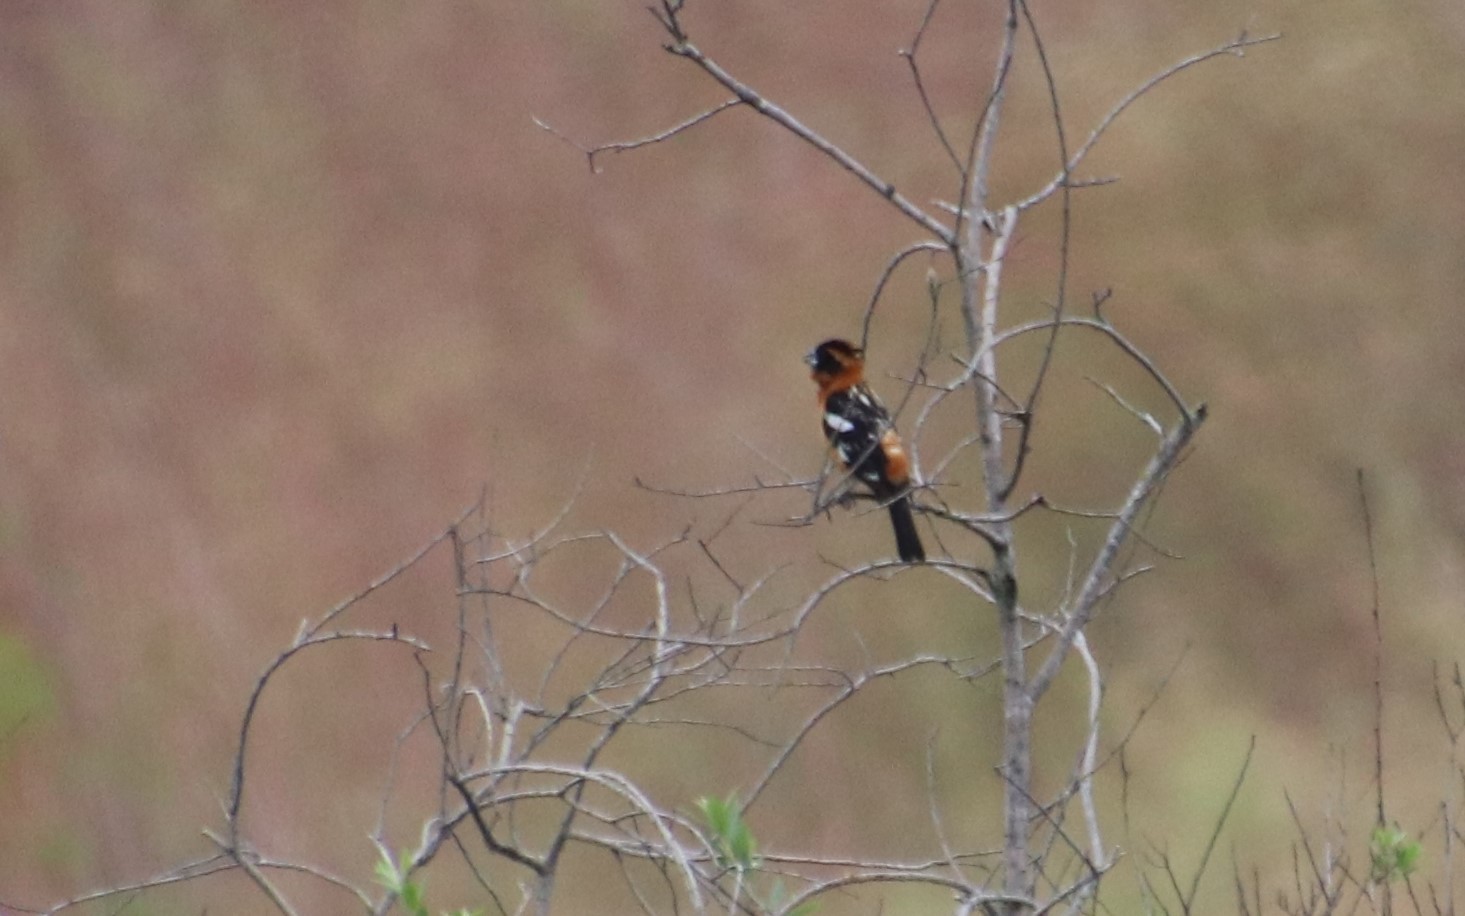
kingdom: Animalia
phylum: Chordata
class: Aves
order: Passeriformes
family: Cardinalidae
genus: Pheucticus
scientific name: Pheucticus melanocephalus
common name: Black-headed grosbeak
